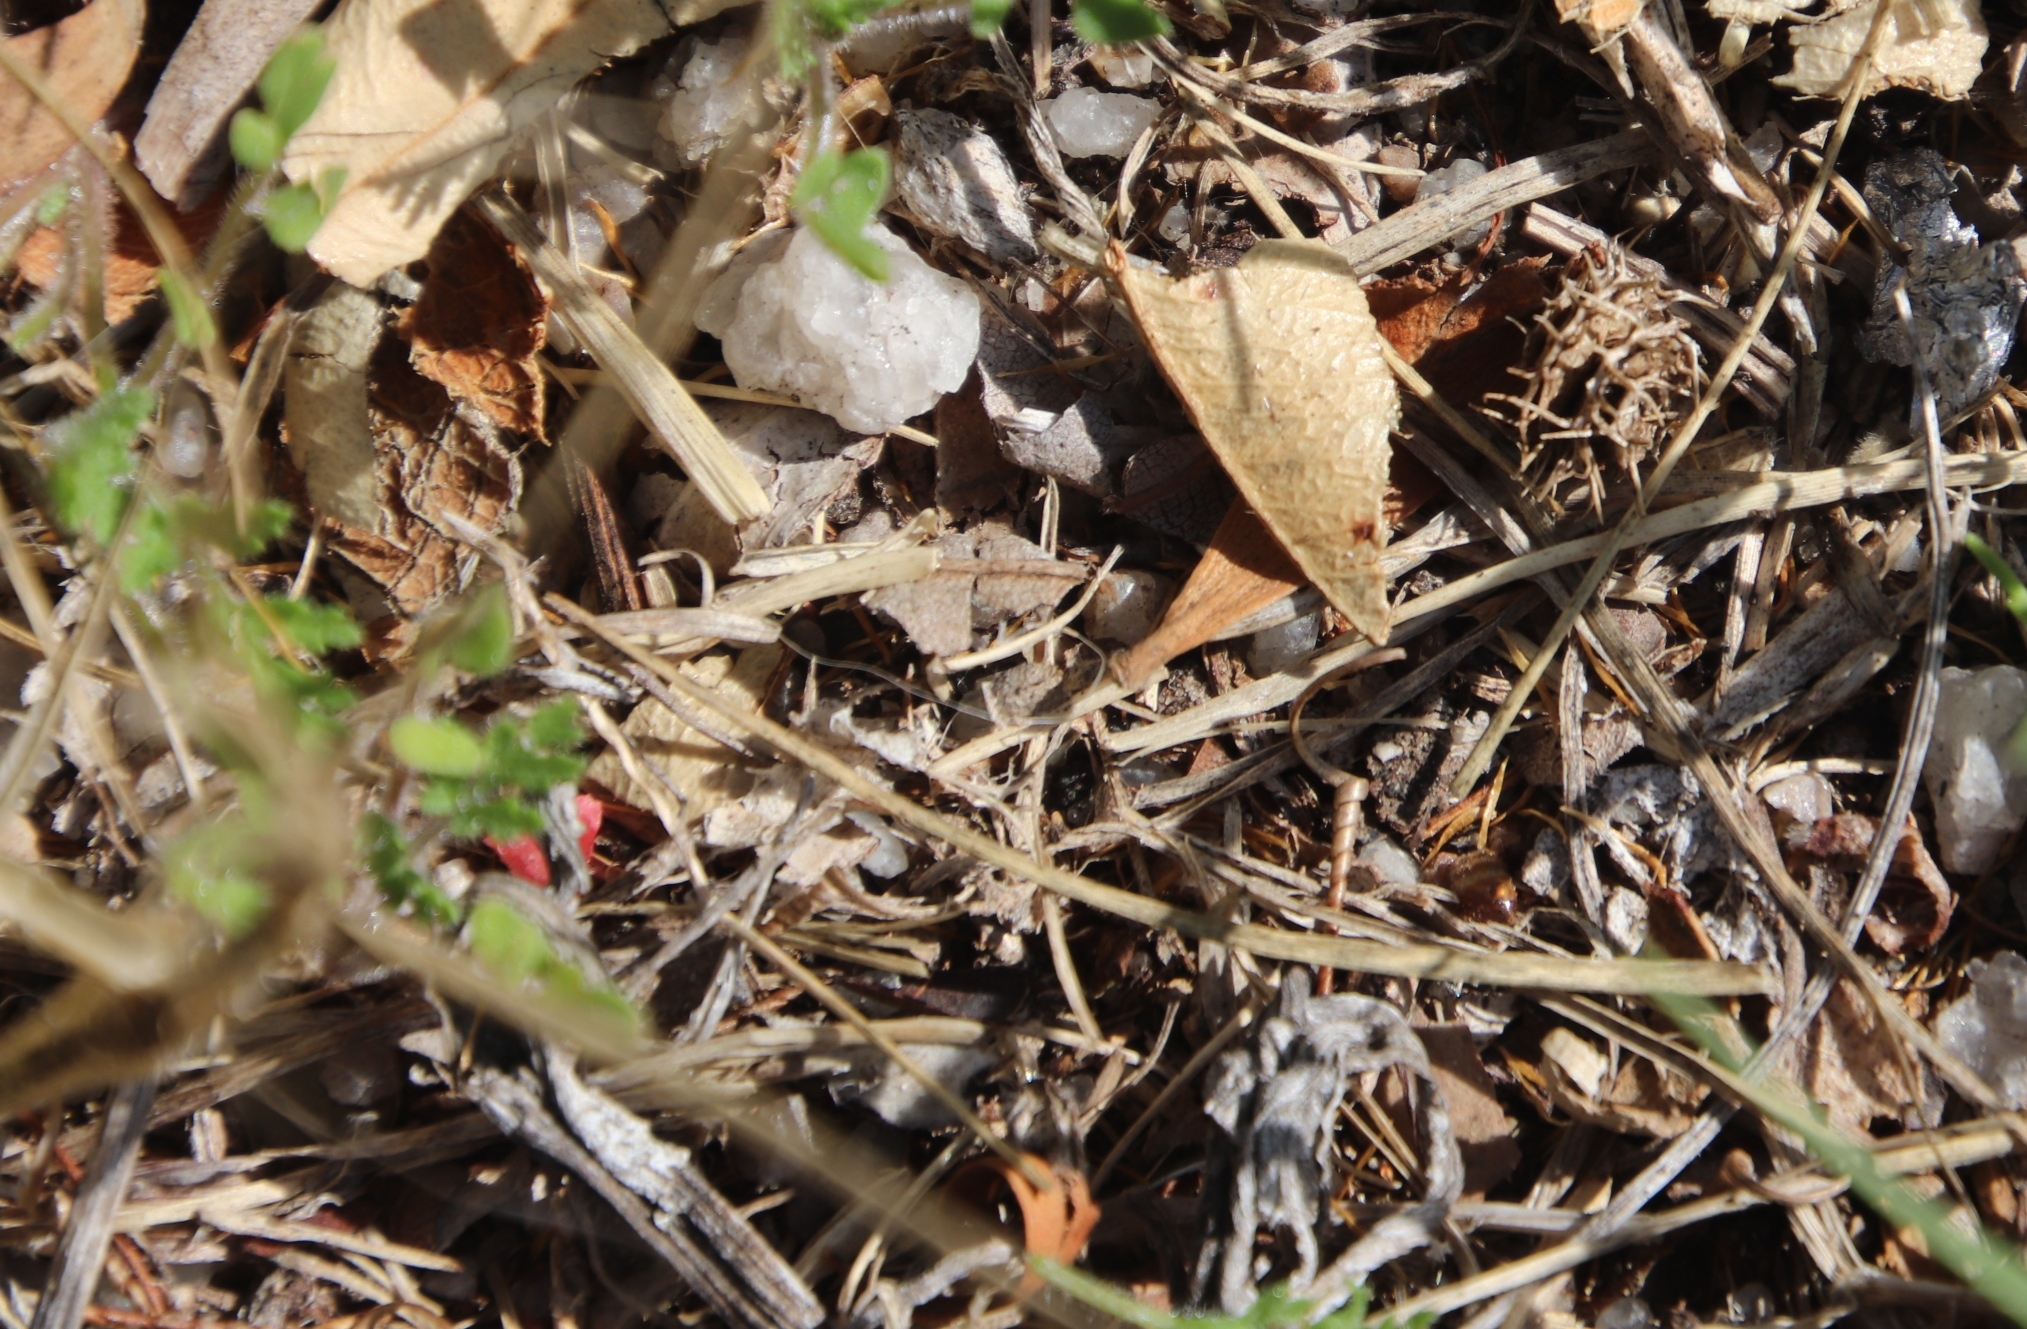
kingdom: Plantae
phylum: Tracheophyta
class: Magnoliopsida
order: Fabales
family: Fabaceae
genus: Medicago
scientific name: Medicago polymorpha
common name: Burclover
